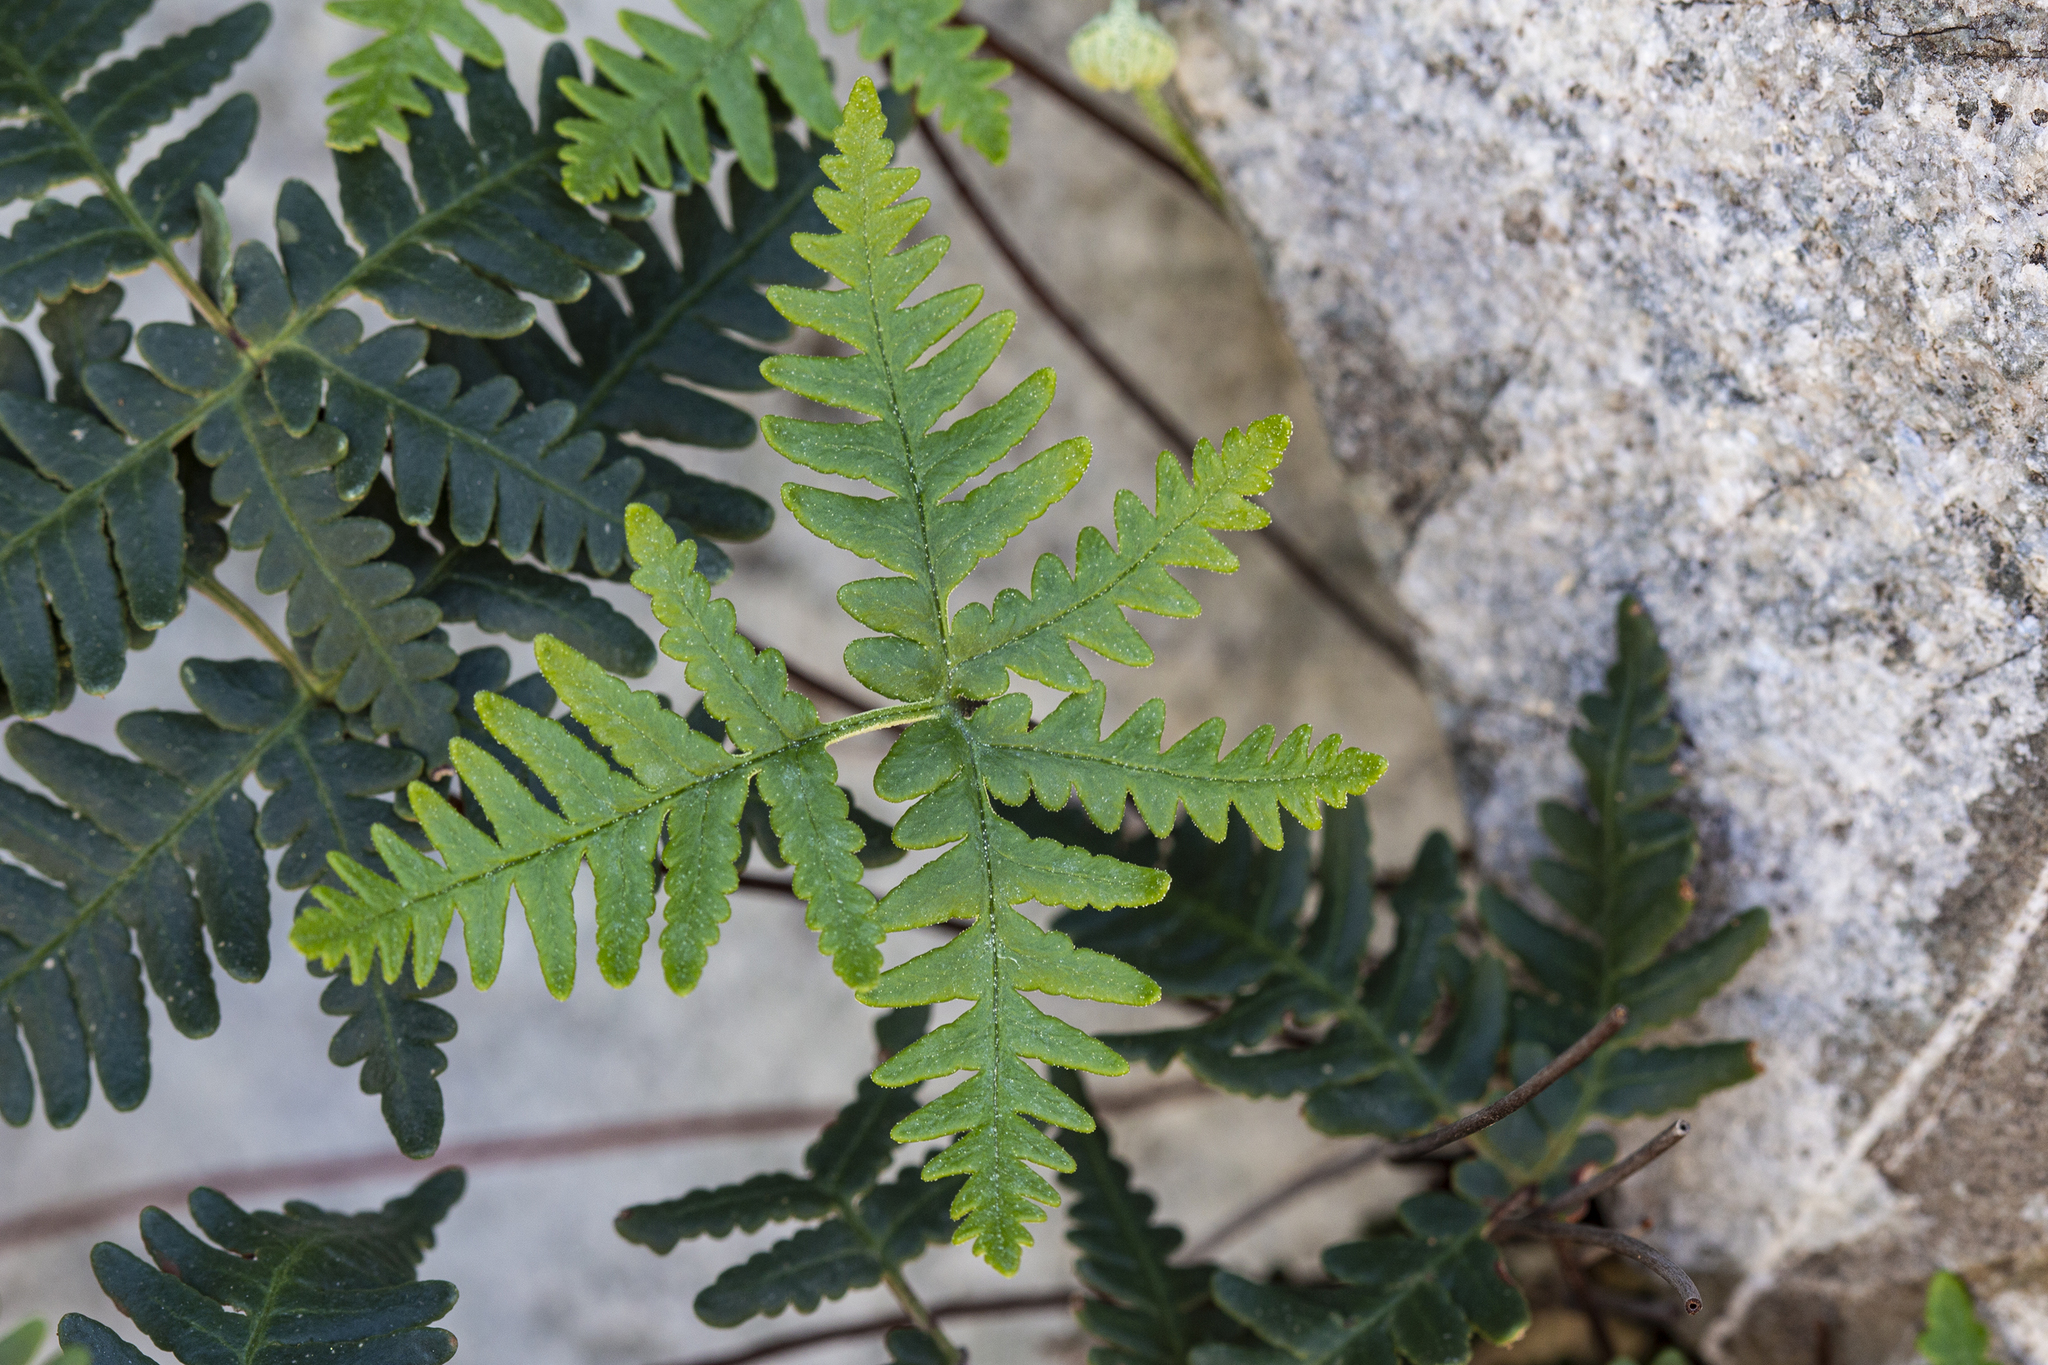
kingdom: Plantae
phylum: Tracheophyta
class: Polypodiopsida
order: Polypodiales
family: Pteridaceae
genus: Notholaena
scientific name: Notholaena standleyi
